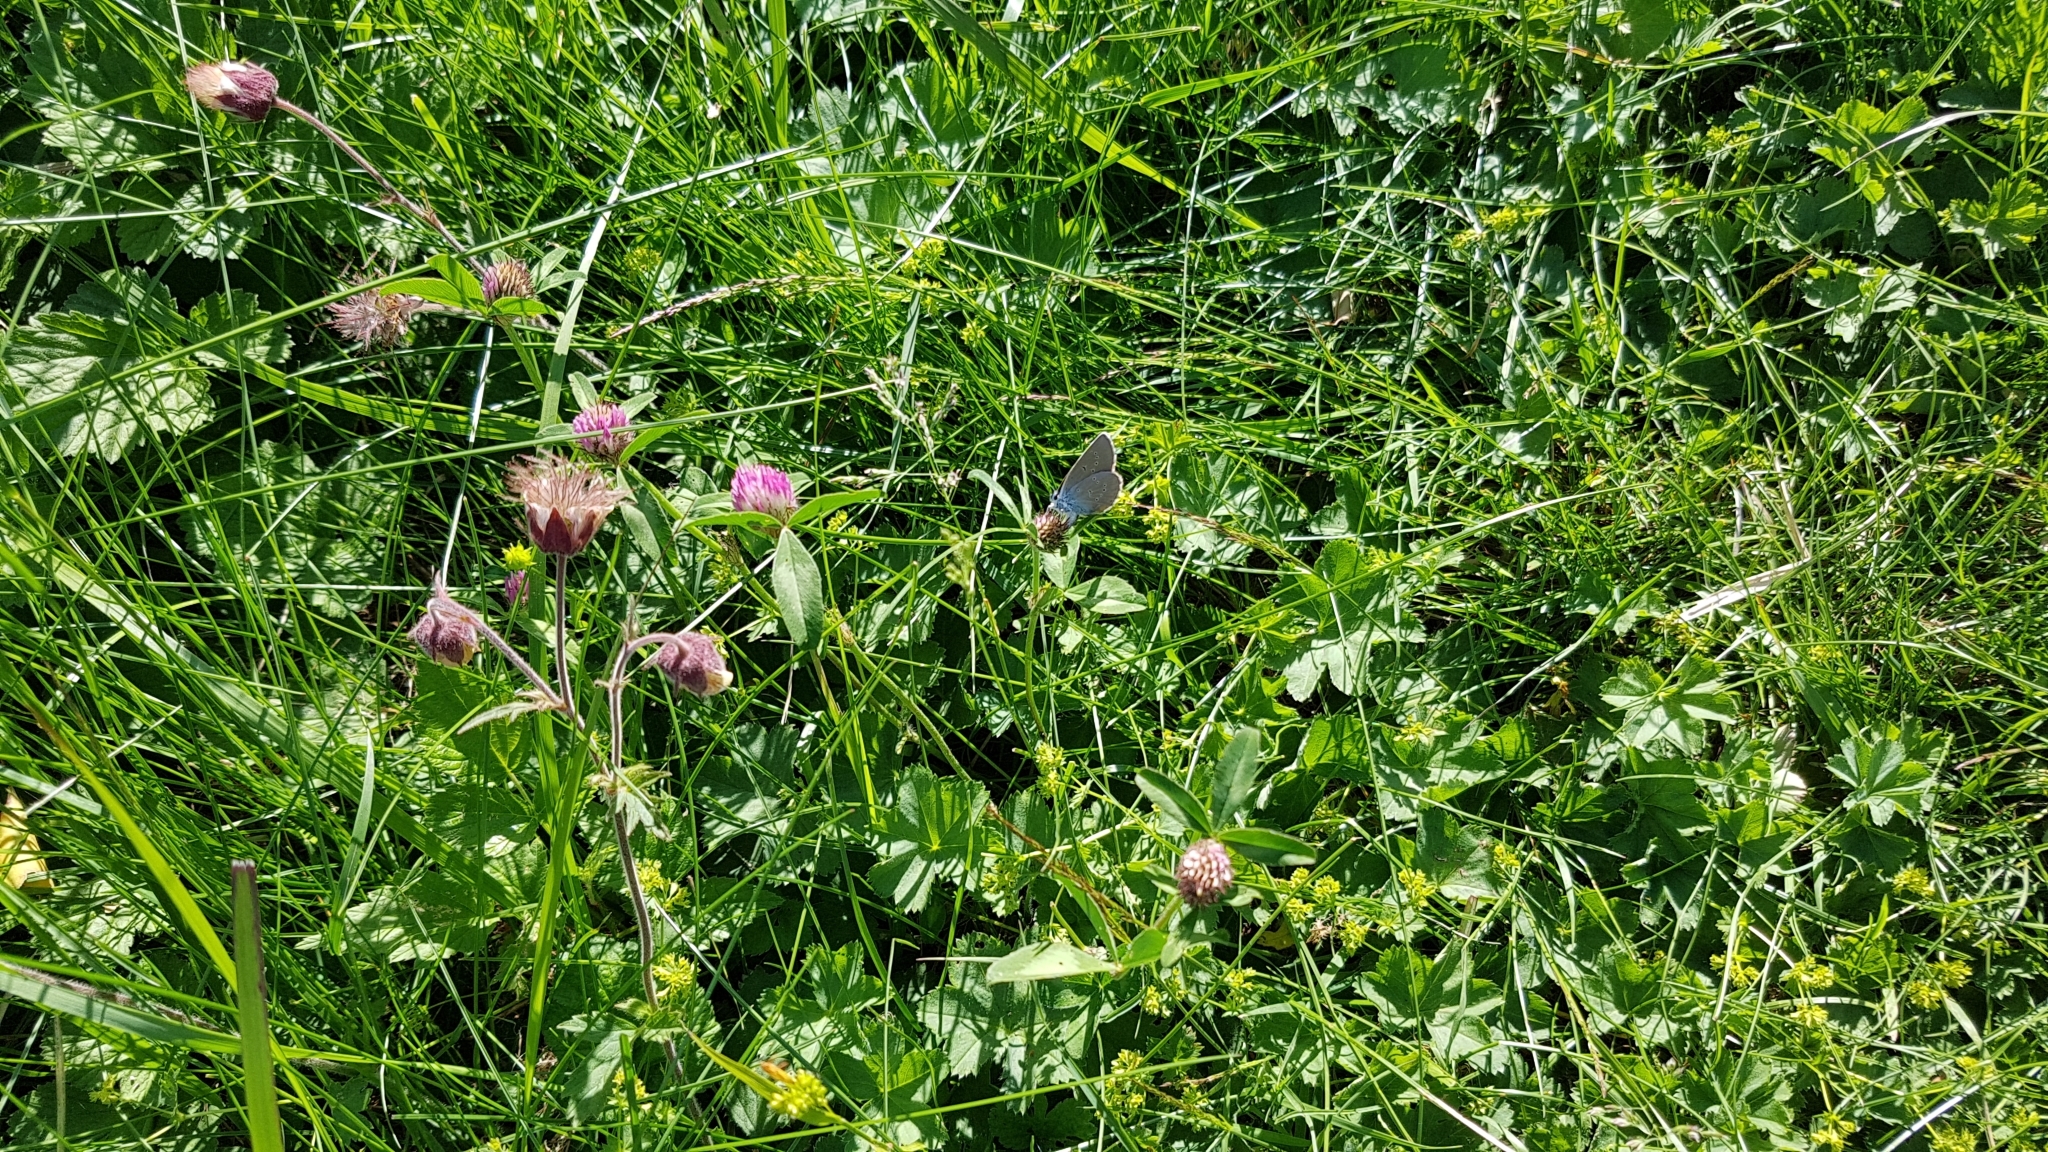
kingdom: Animalia
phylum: Arthropoda
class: Insecta
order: Lepidoptera
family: Lycaenidae
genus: Cyaniris
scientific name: Cyaniris semiargus
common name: Mazarine blue
